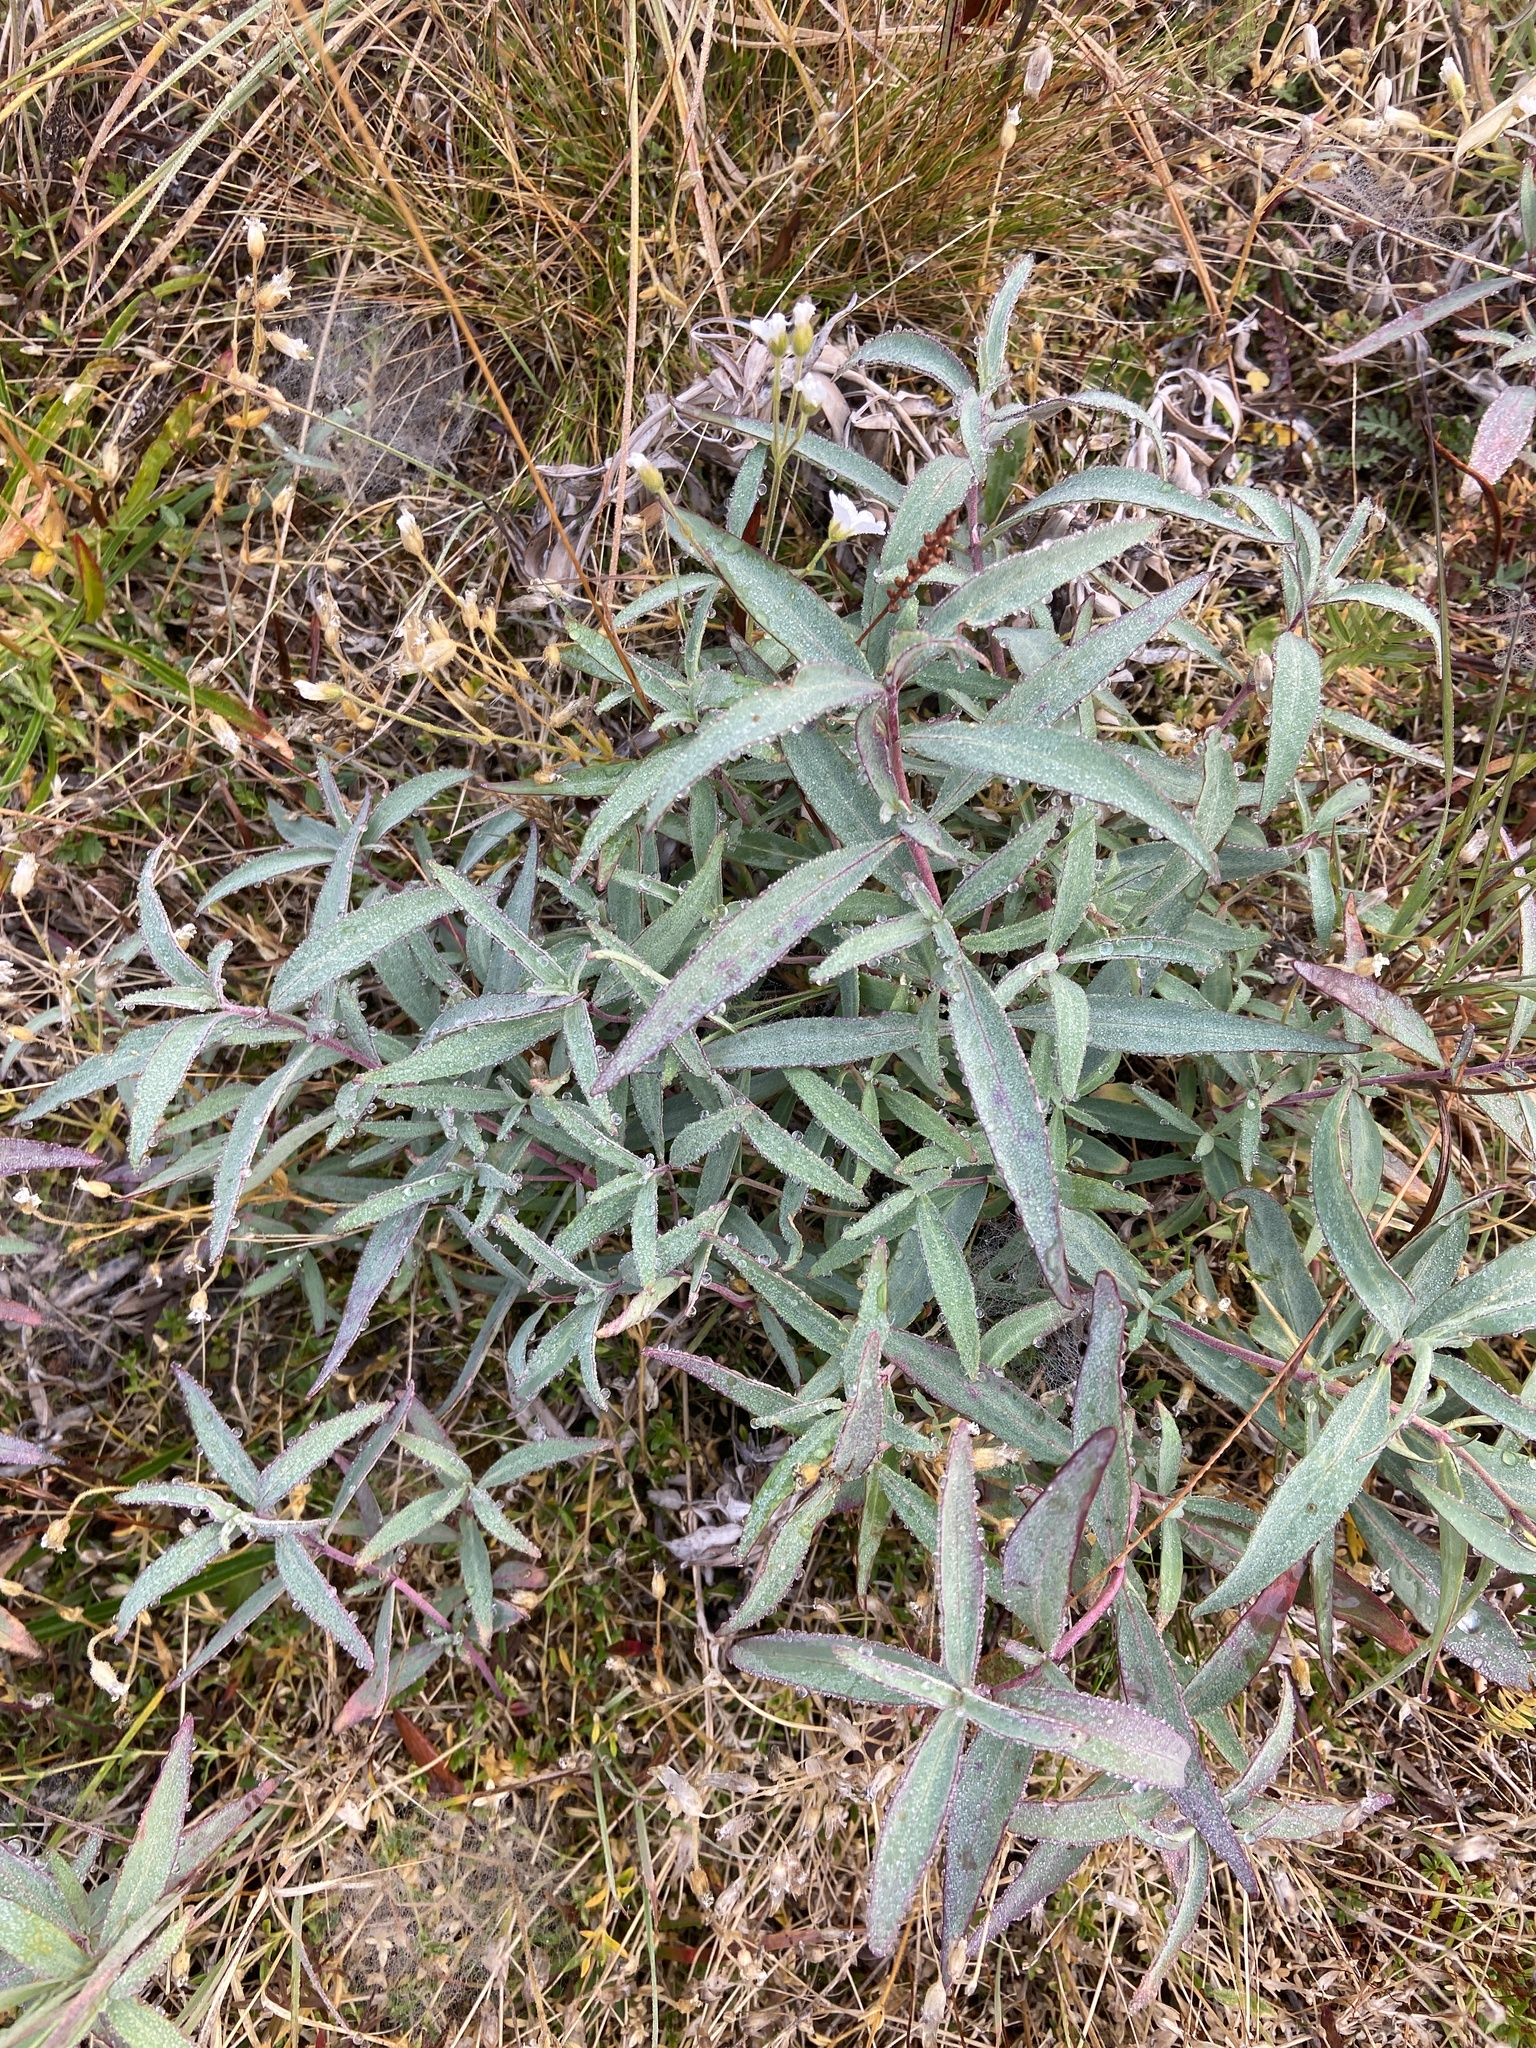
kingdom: Plantae
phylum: Tracheophyta
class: Magnoliopsida
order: Myrtales
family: Onagraceae
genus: Chamaenerion
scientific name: Chamaenerion latifolium
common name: Dwarf fireweed
